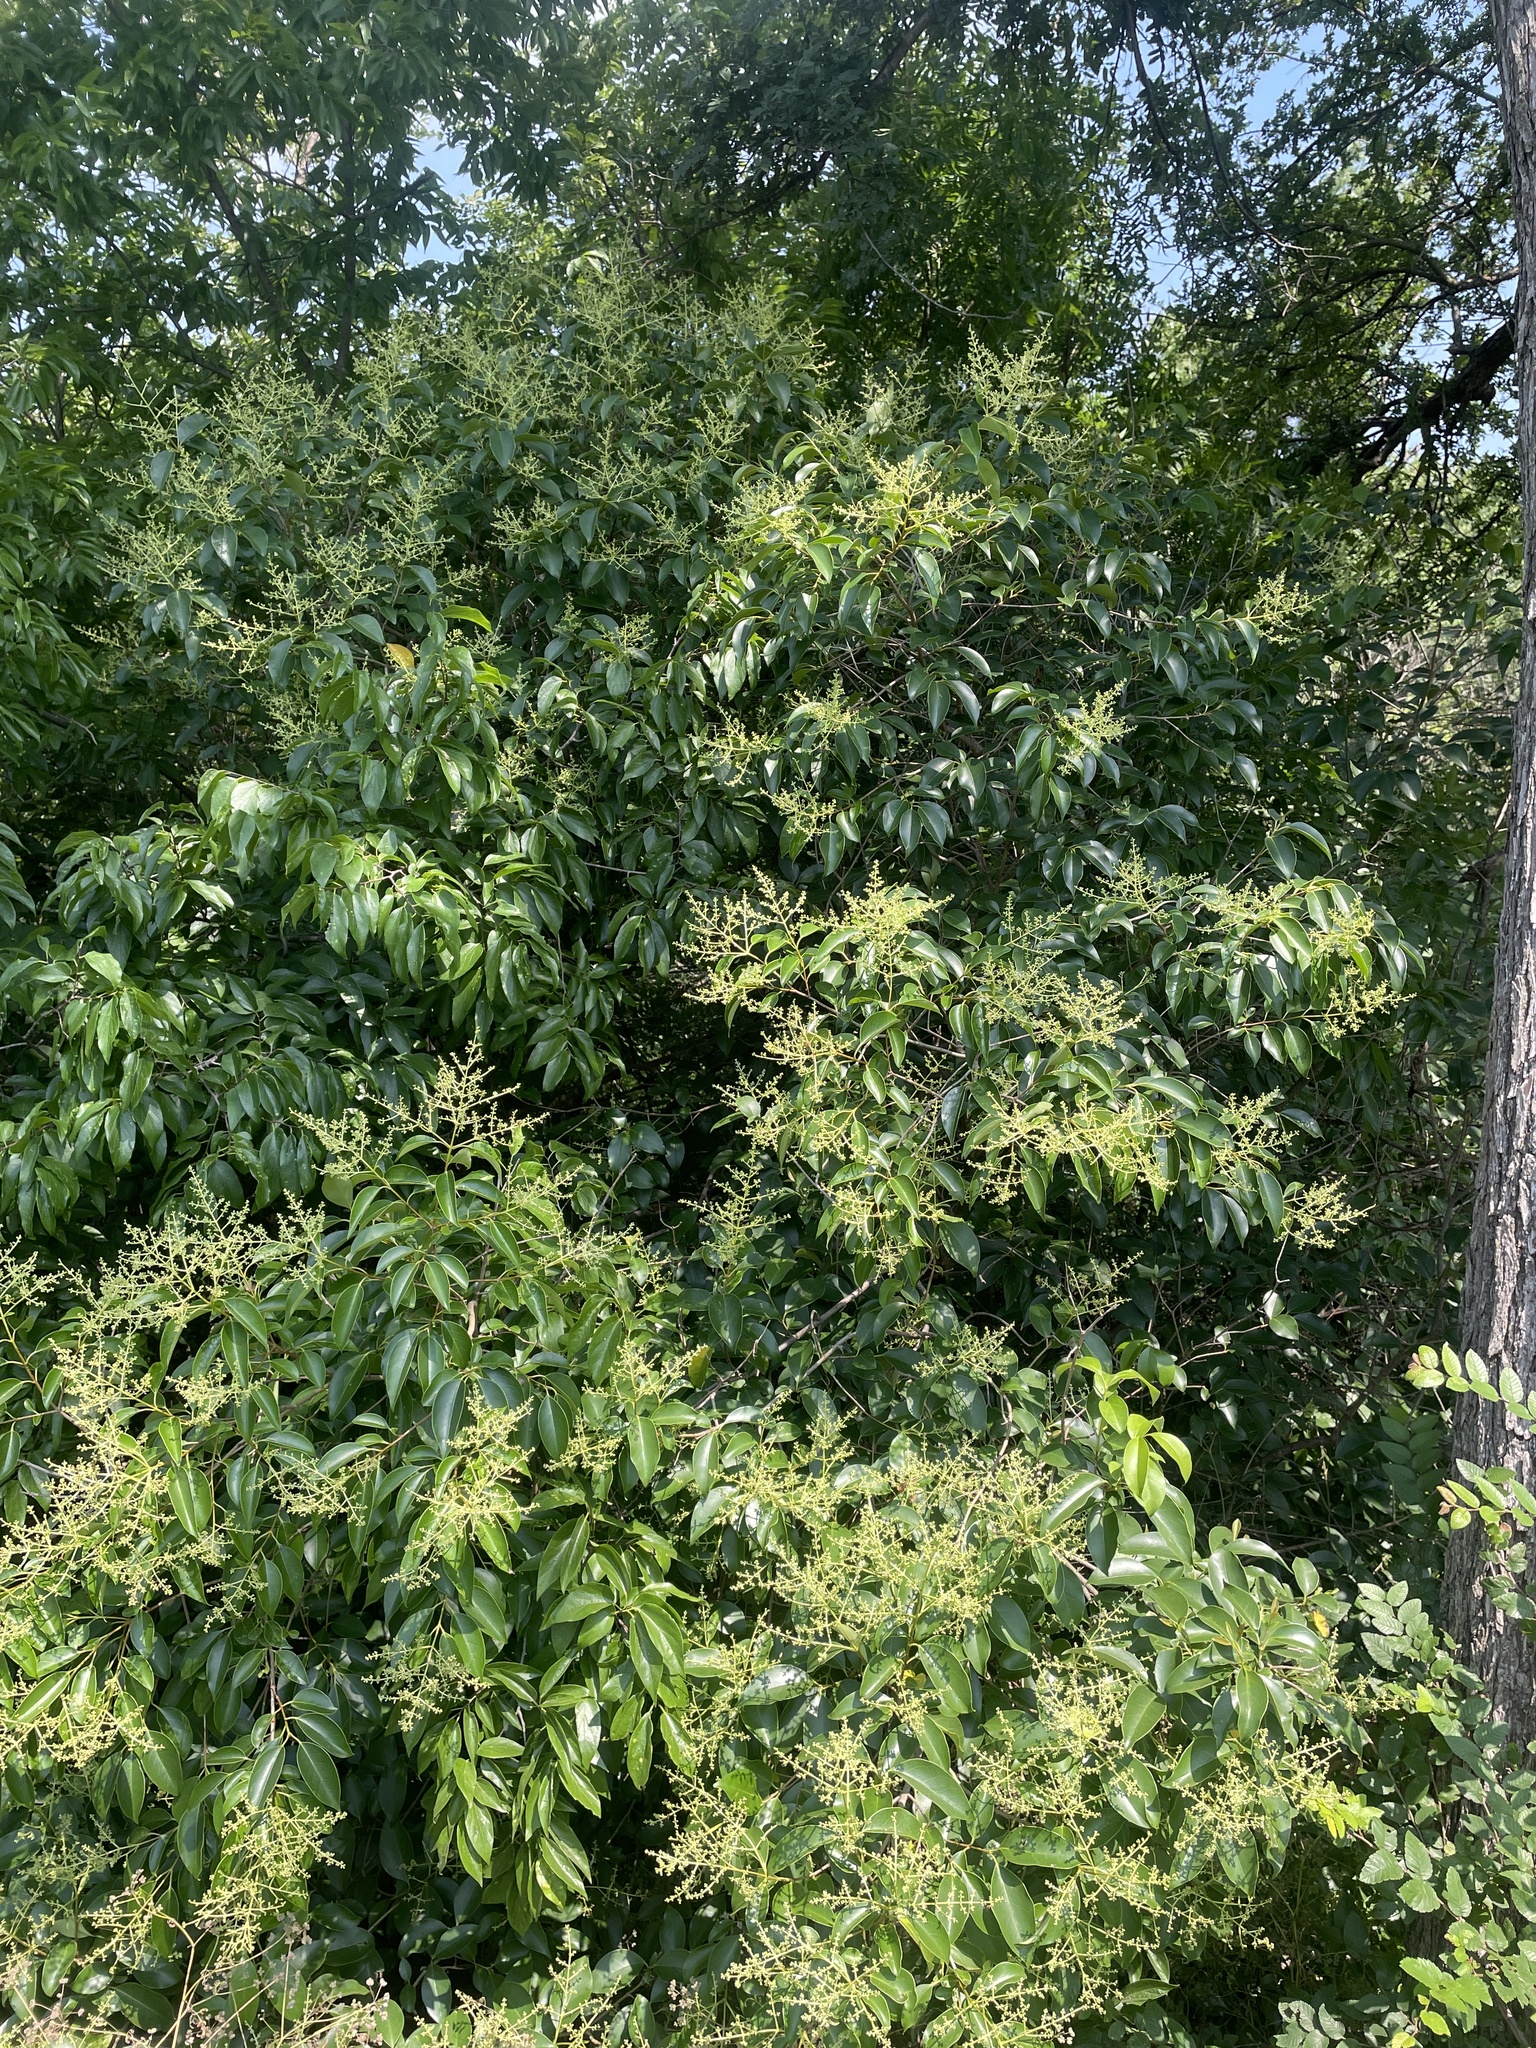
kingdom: Plantae
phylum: Tracheophyta
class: Magnoliopsida
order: Lamiales
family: Oleaceae
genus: Ligustrum
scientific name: Ligustrum lucidum
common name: Glossy privet
